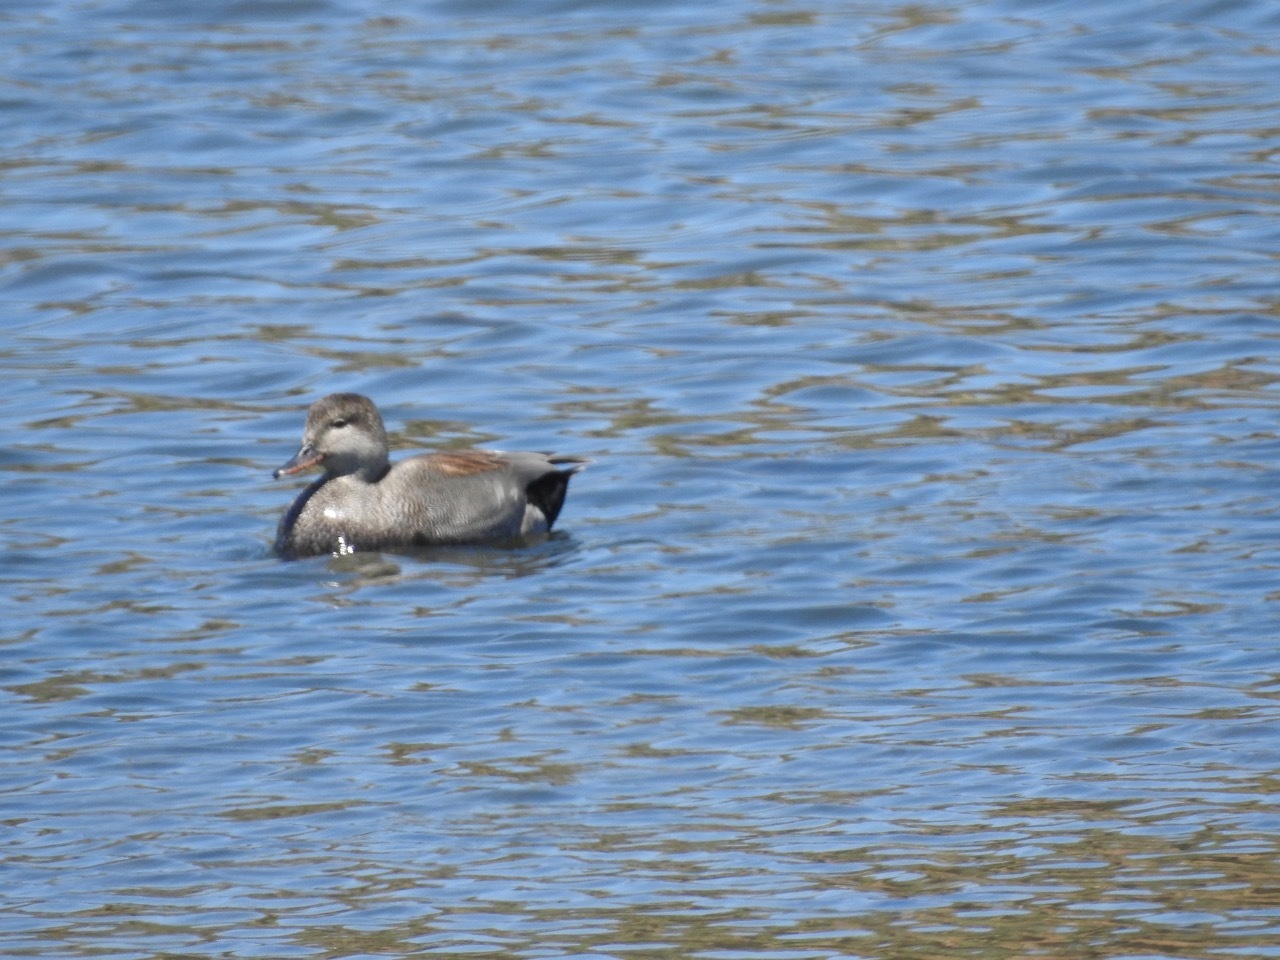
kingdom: Animalia
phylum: Chordata
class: Aves
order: Anseriformes
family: Anatidae
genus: Mareca
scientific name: Mareca strepera
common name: Gadwall
